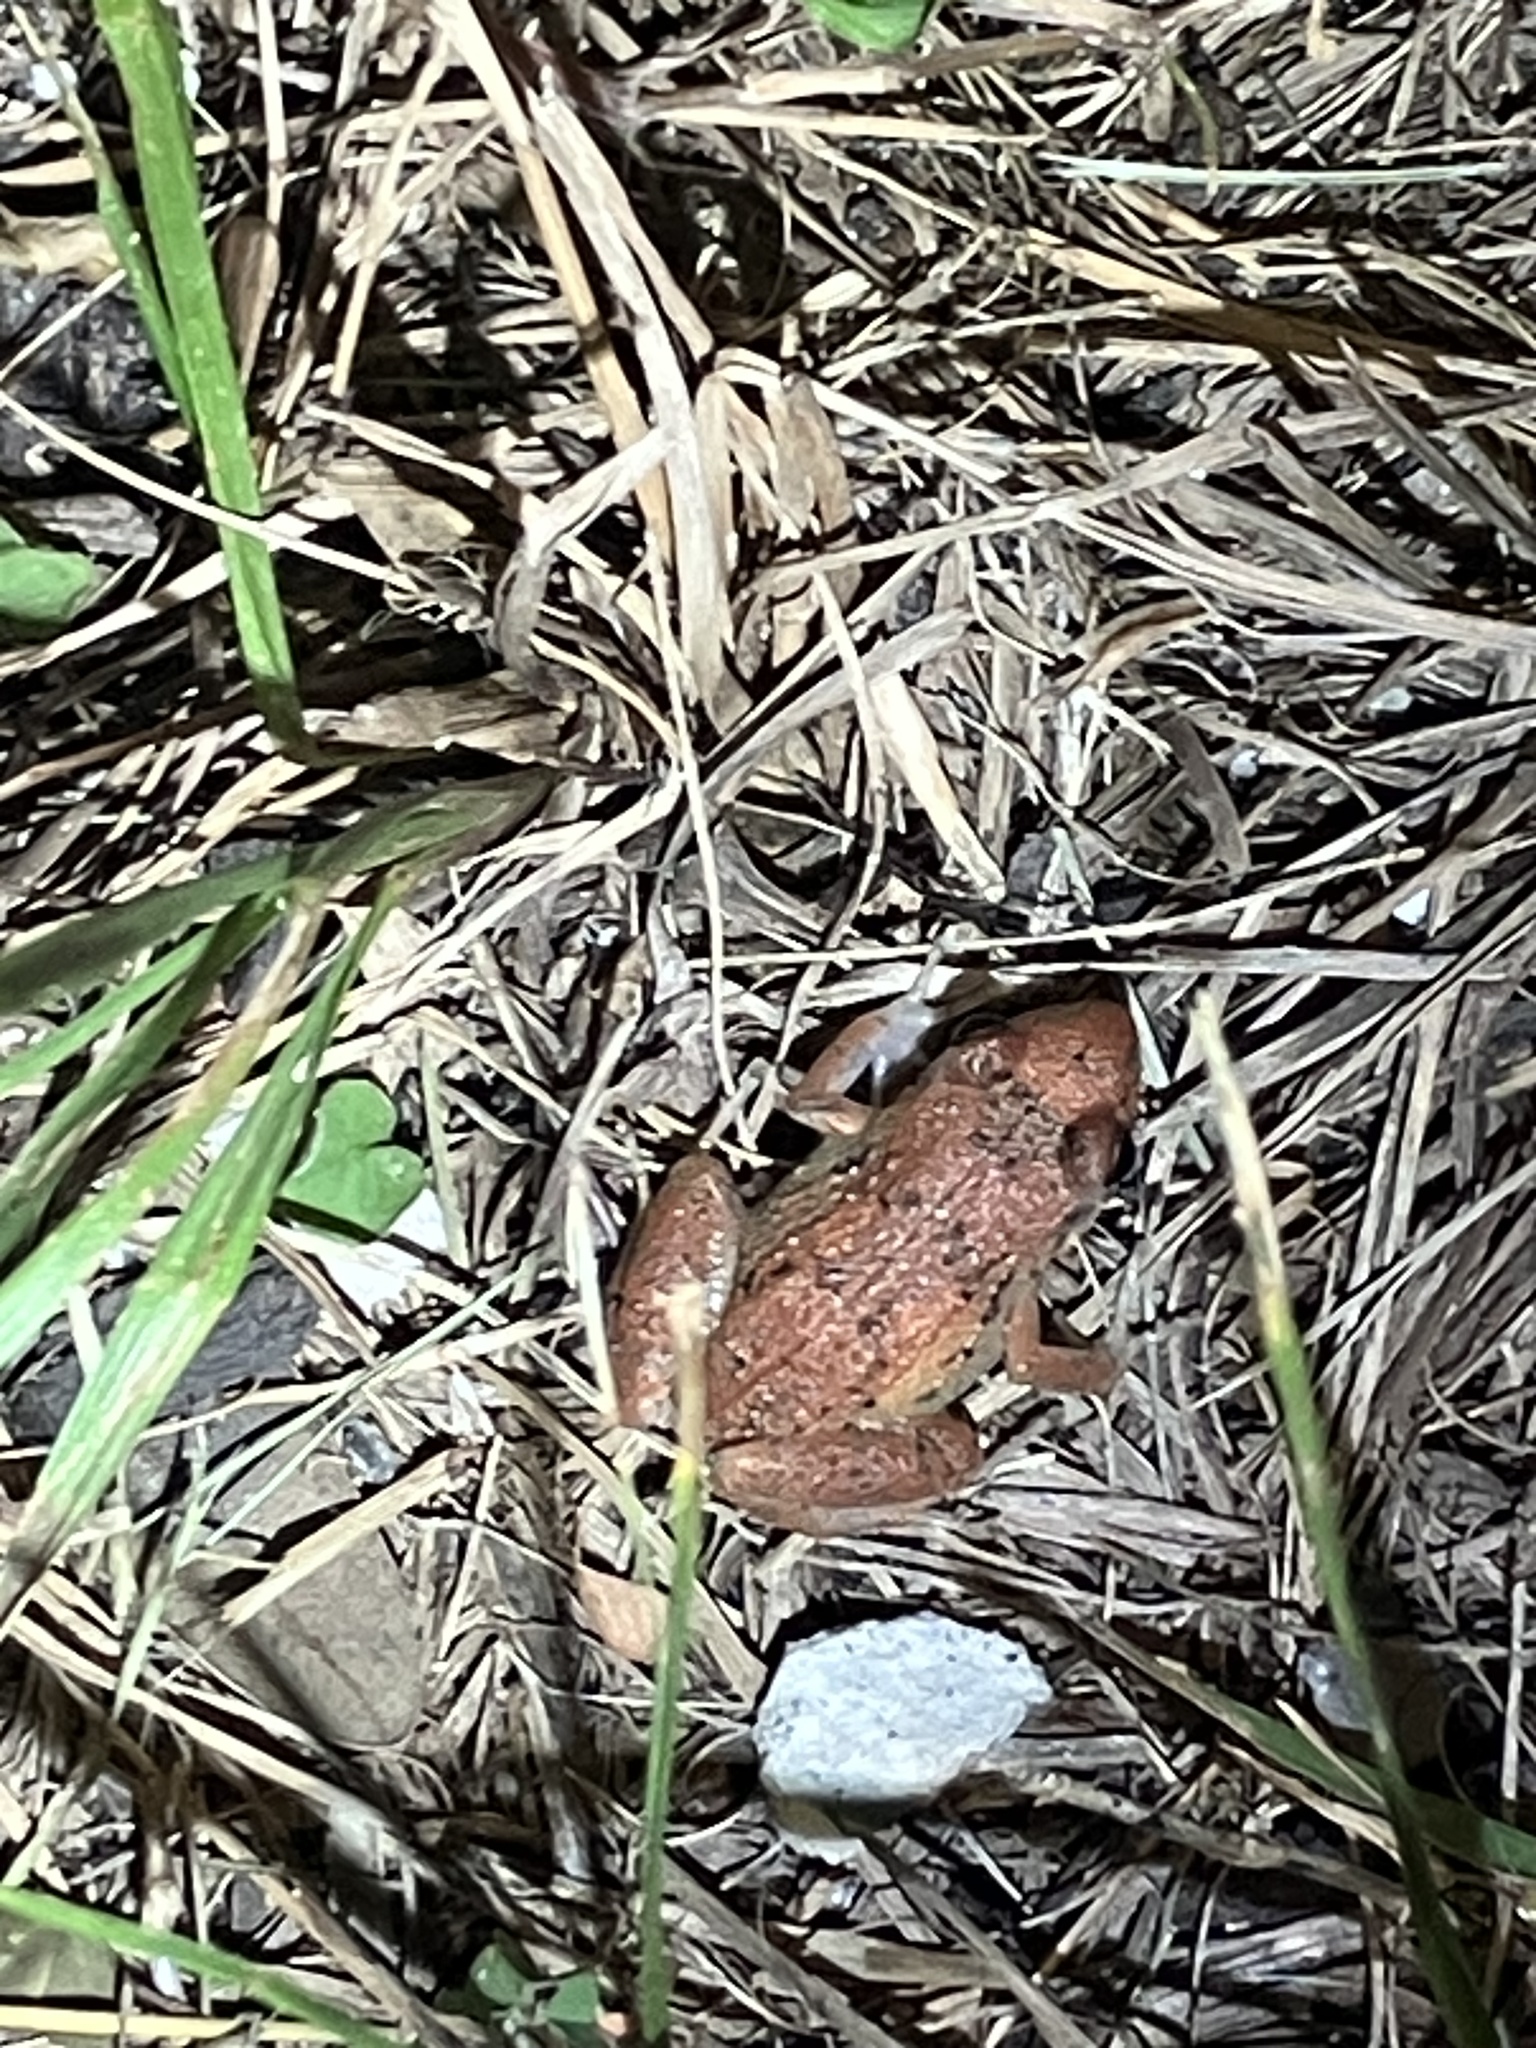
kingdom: Animalia
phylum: Chordata
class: Amphibia
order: Anura
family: Eleutherodactylidae
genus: Eleutherodactylus
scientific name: Eleutherodactylus planirostris
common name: Greenhouse frog
